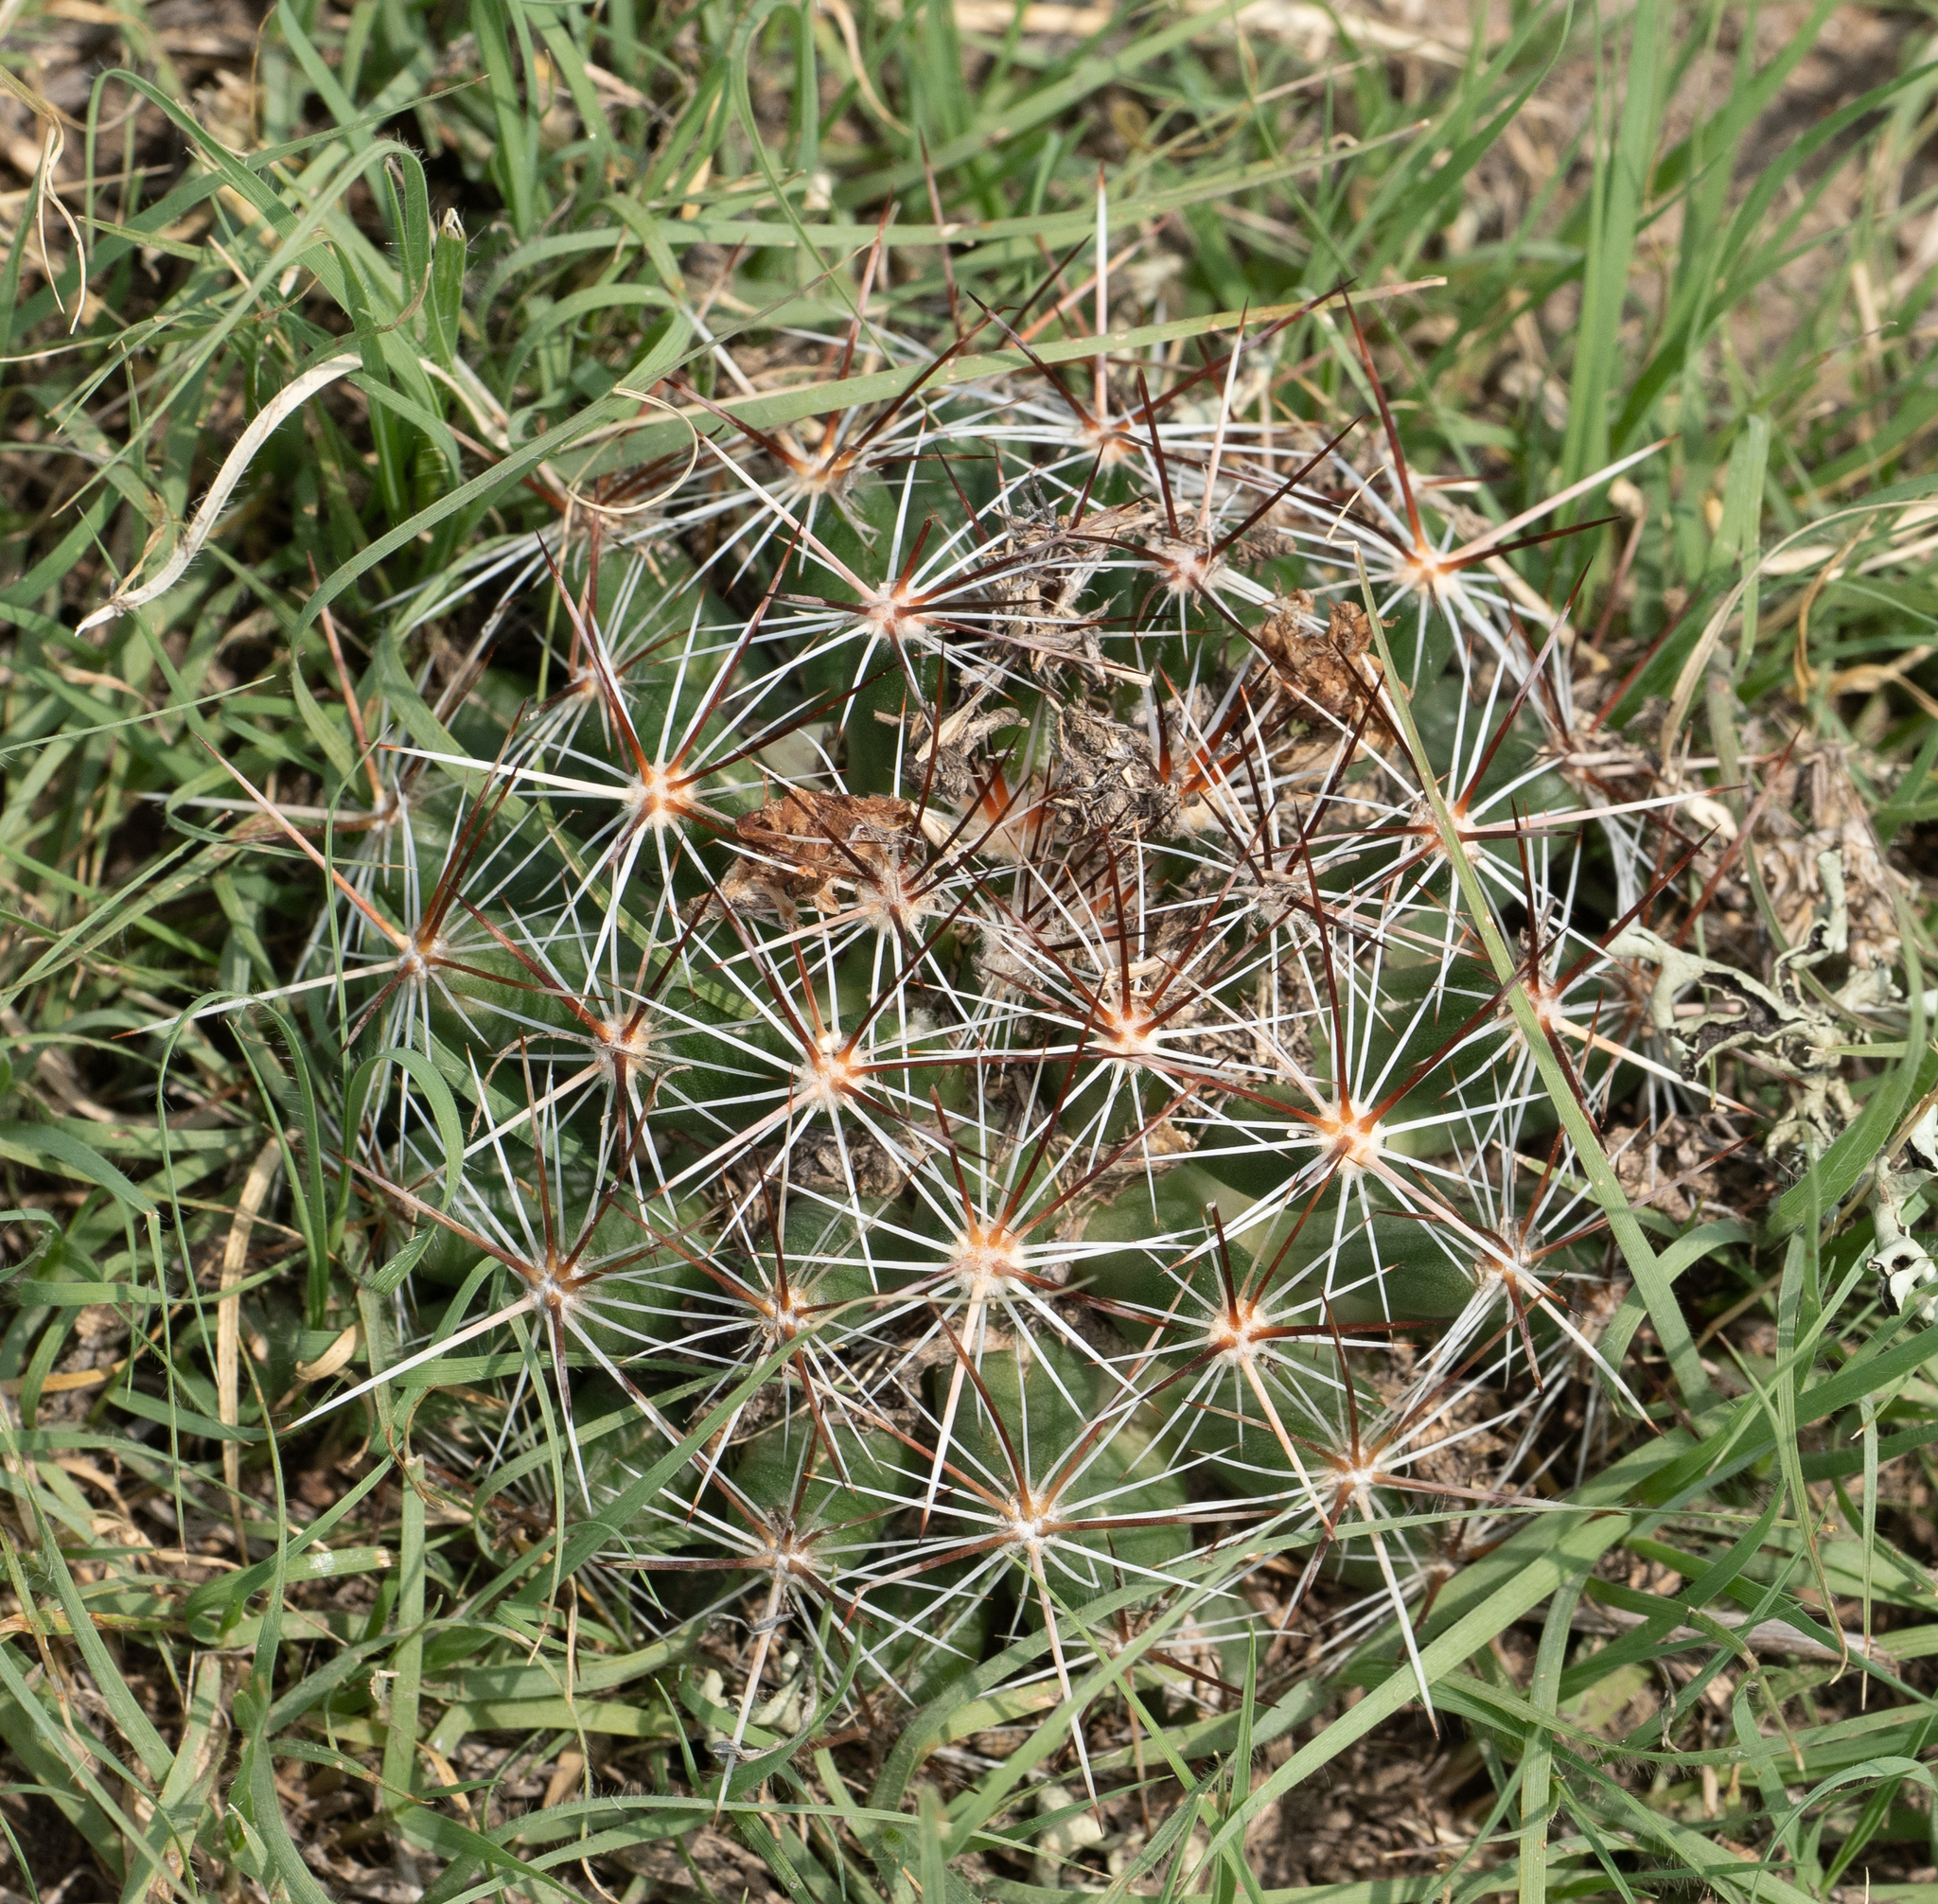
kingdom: Plantae
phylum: Tracheophyta
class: Magnoliopsida
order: Caryophyllales
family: Cactaceae
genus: Pelecyphora
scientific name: Pelecyphora vivipara
